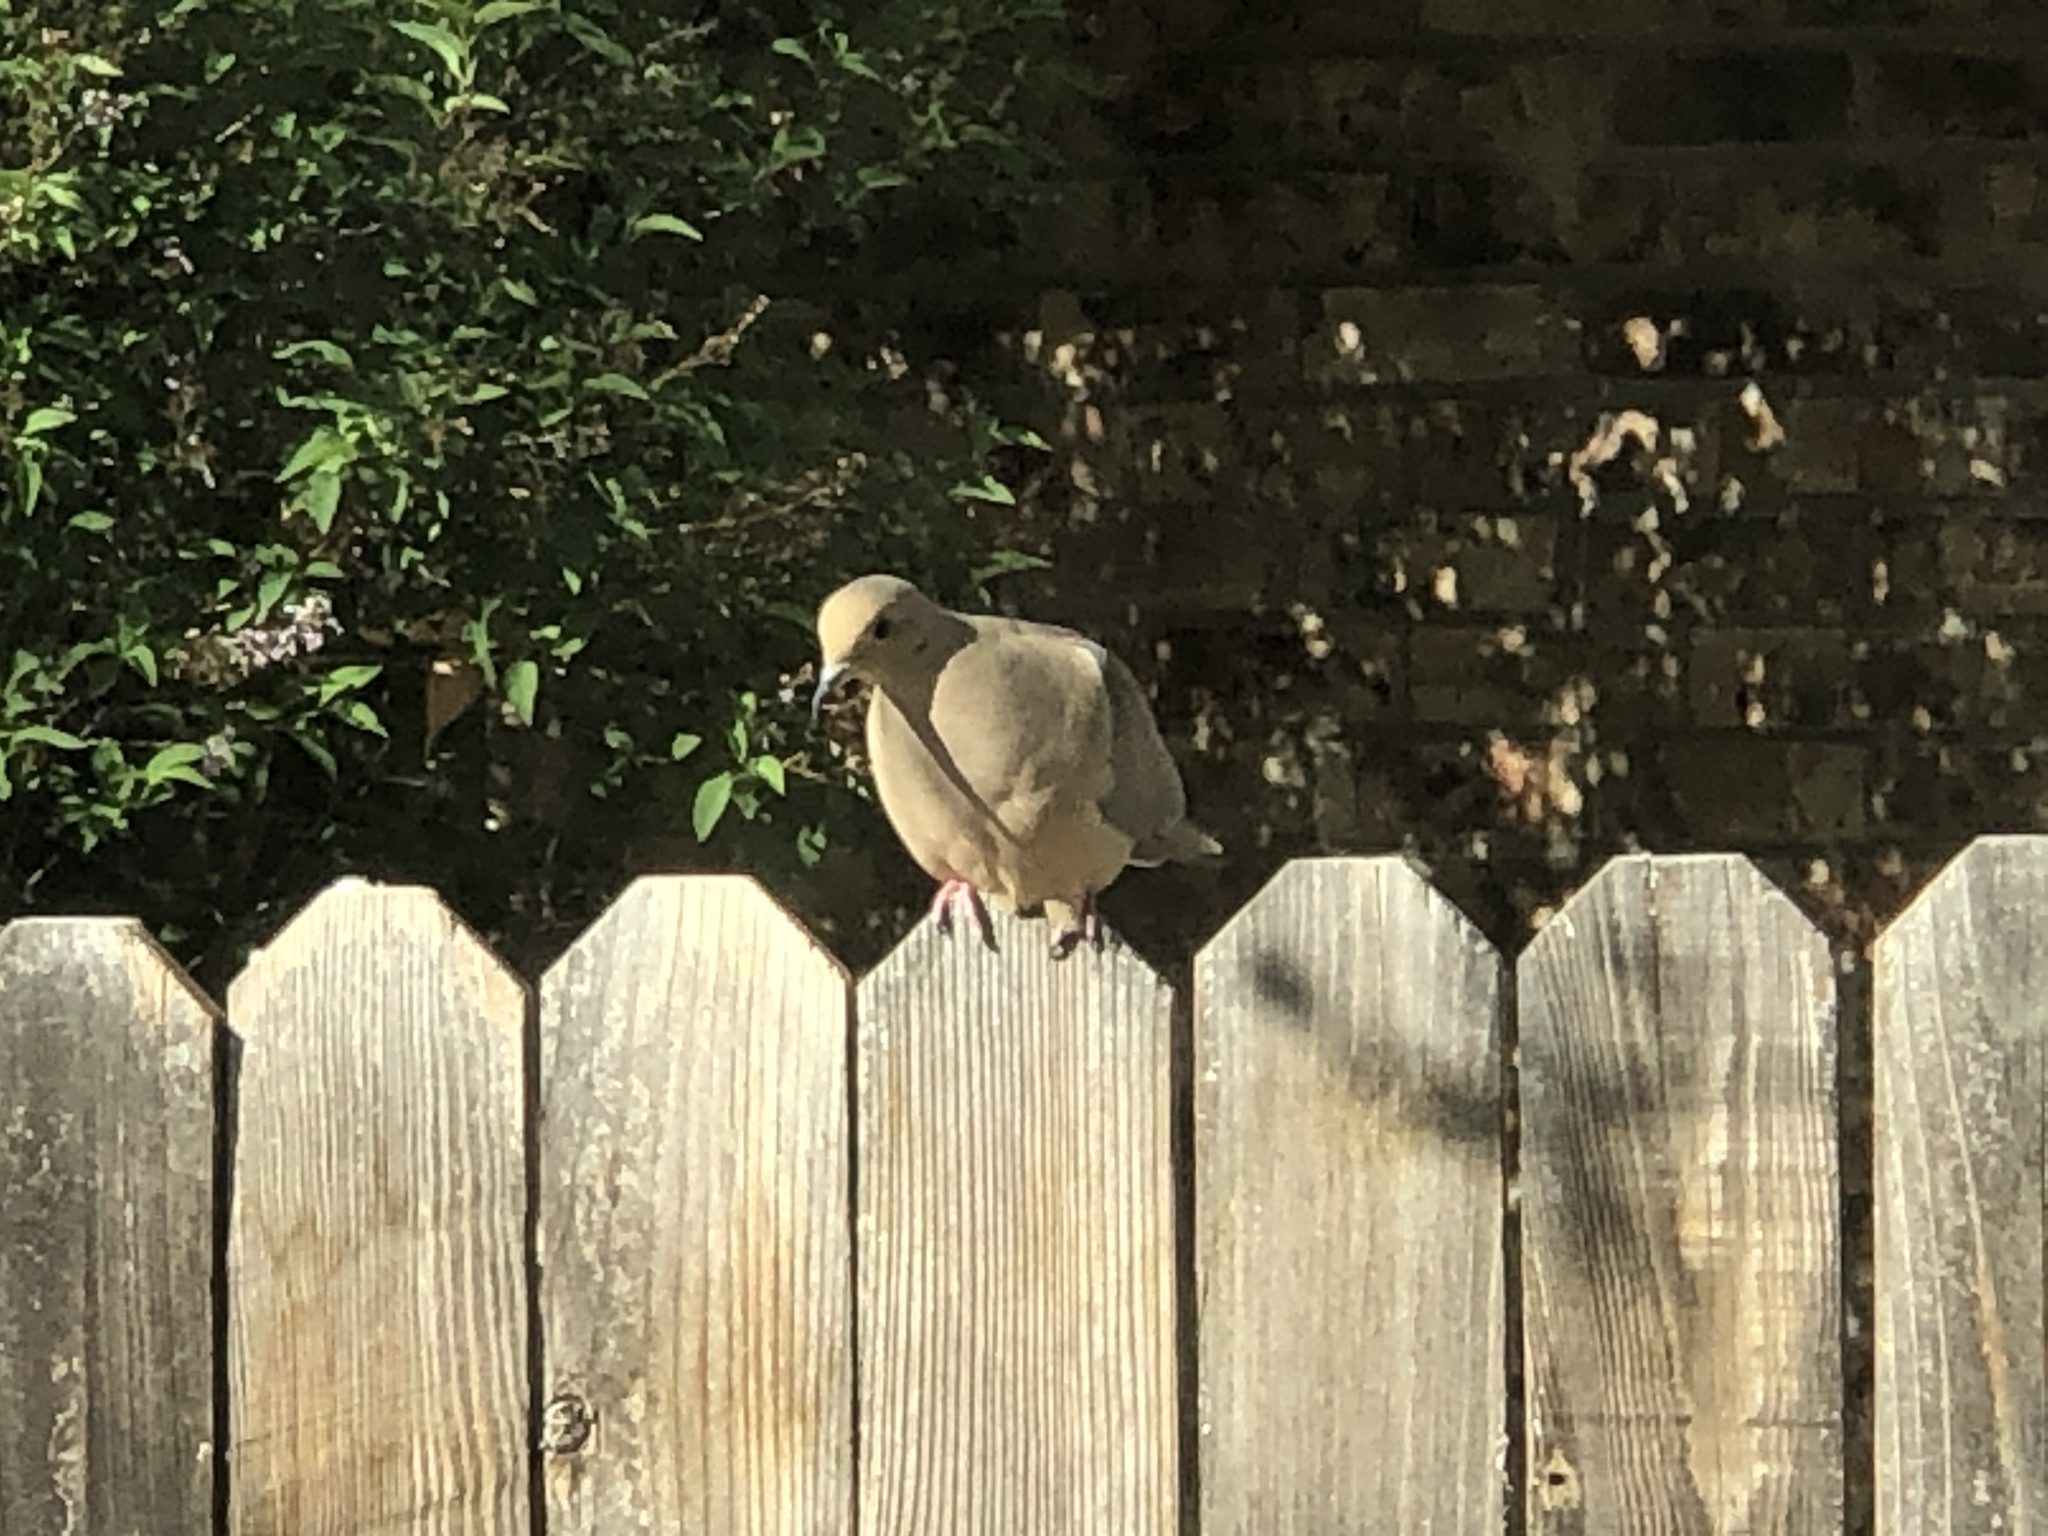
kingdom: Animalia
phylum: Chordata
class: Aves
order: Columbiformes
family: Columbidae
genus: Zenaida
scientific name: Zenaida macroura
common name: Mourning dove
